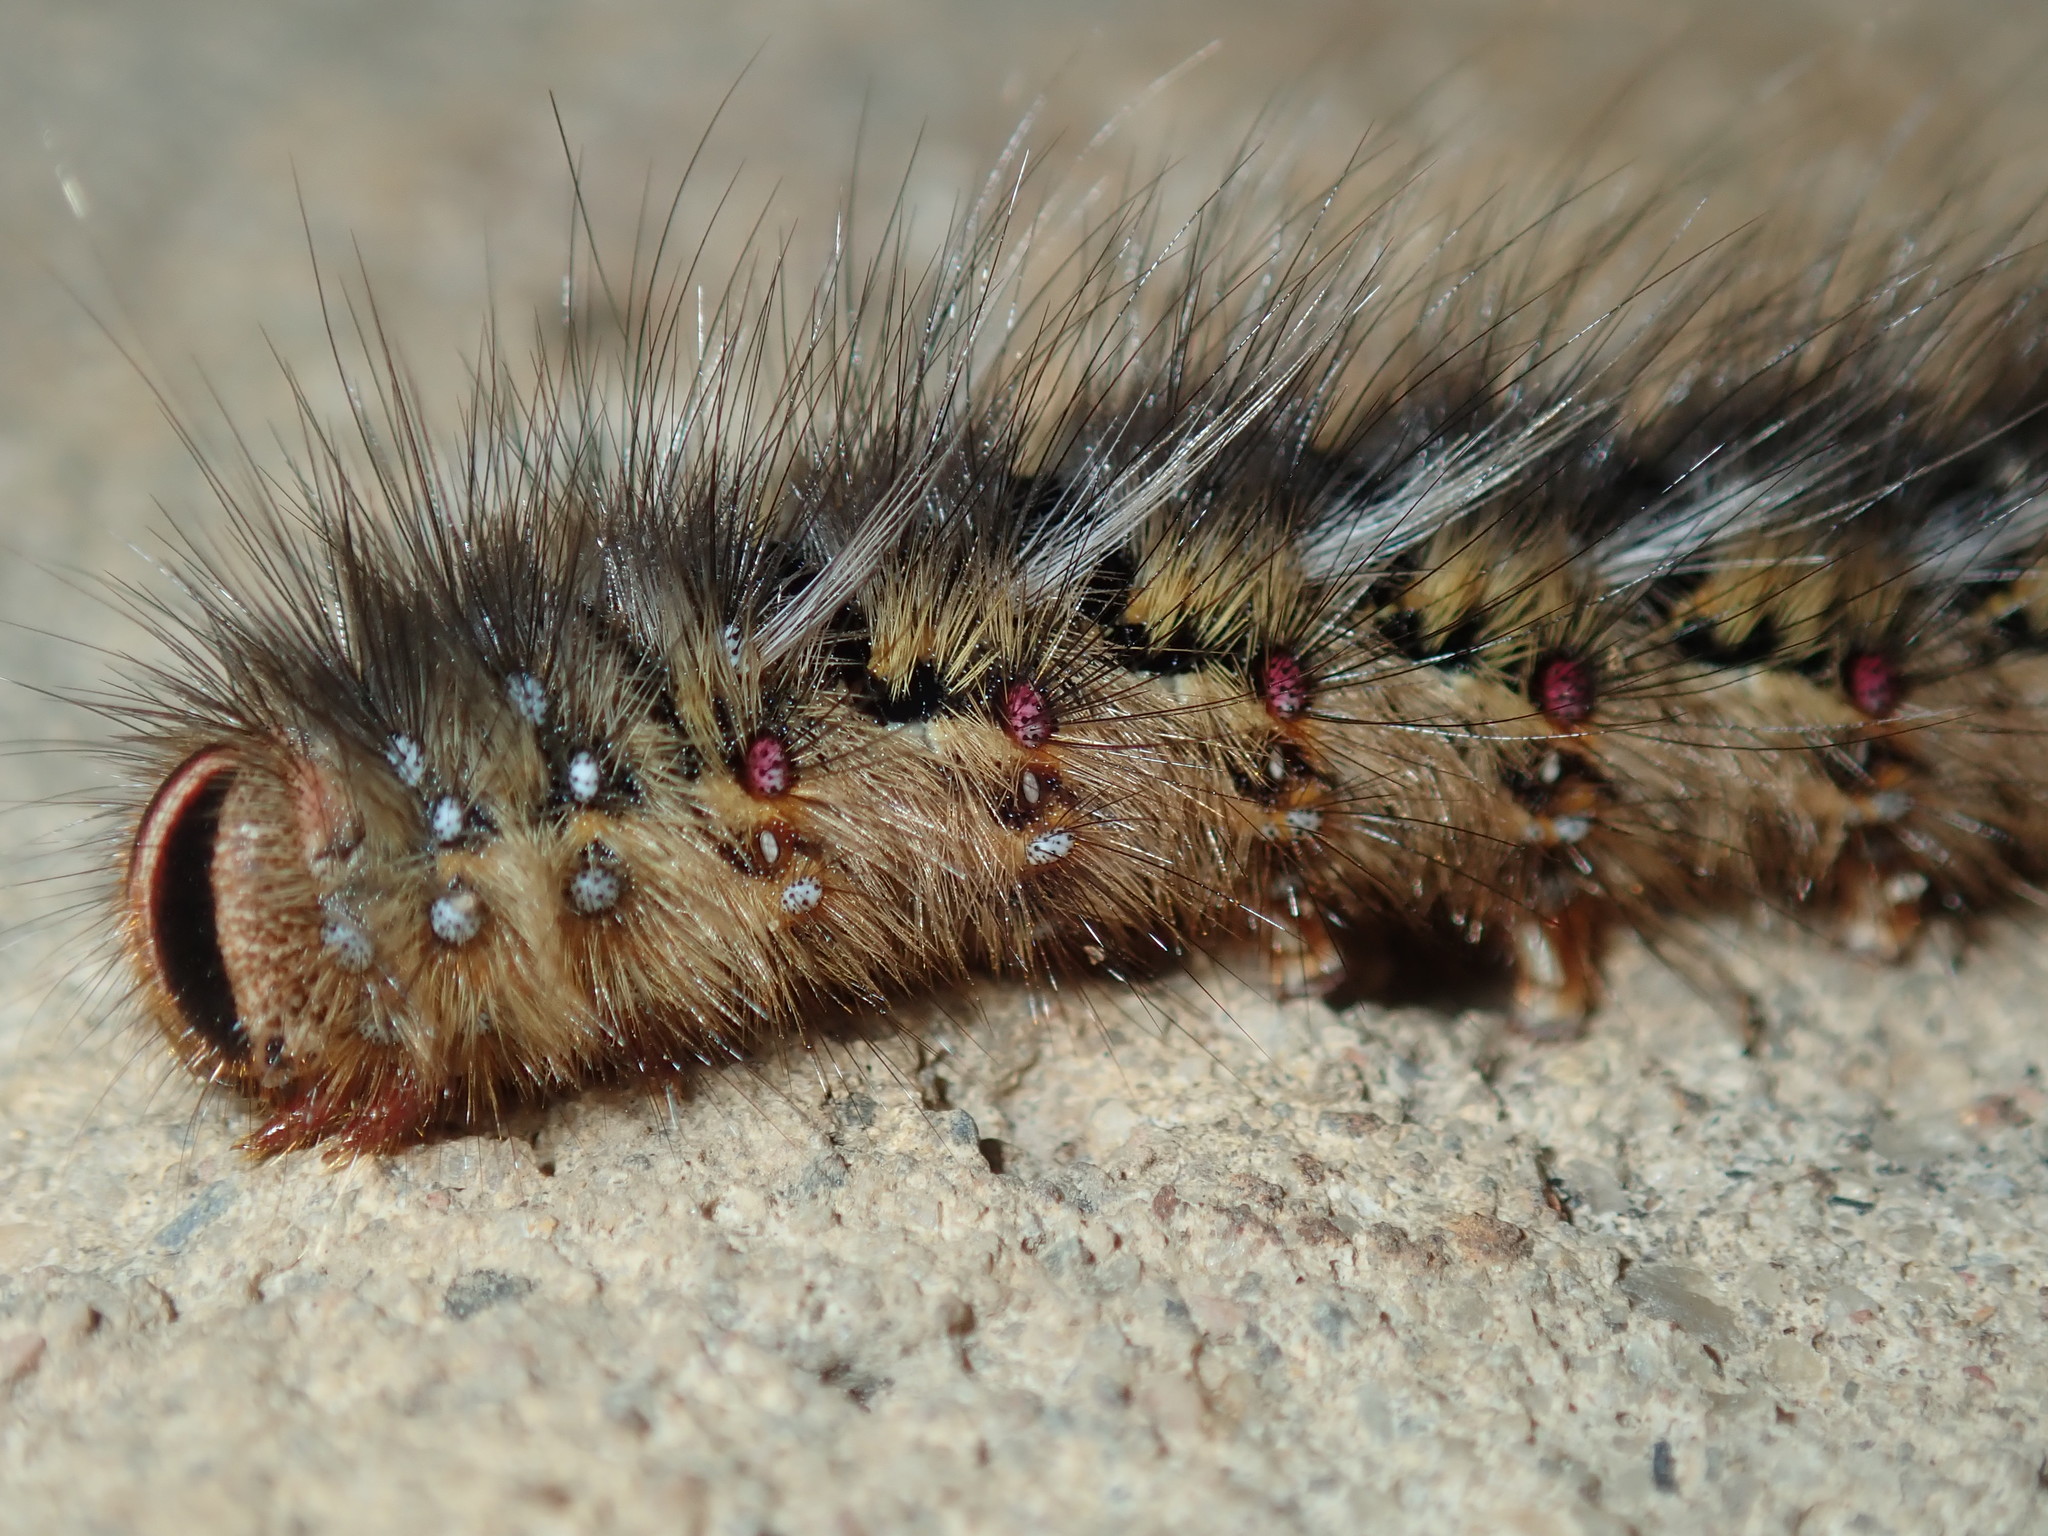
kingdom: Animalia
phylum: Arthropoda
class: Insecta
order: Lepidoptera
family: Anthelidae
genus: Anthela
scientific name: Anthela ocellata
